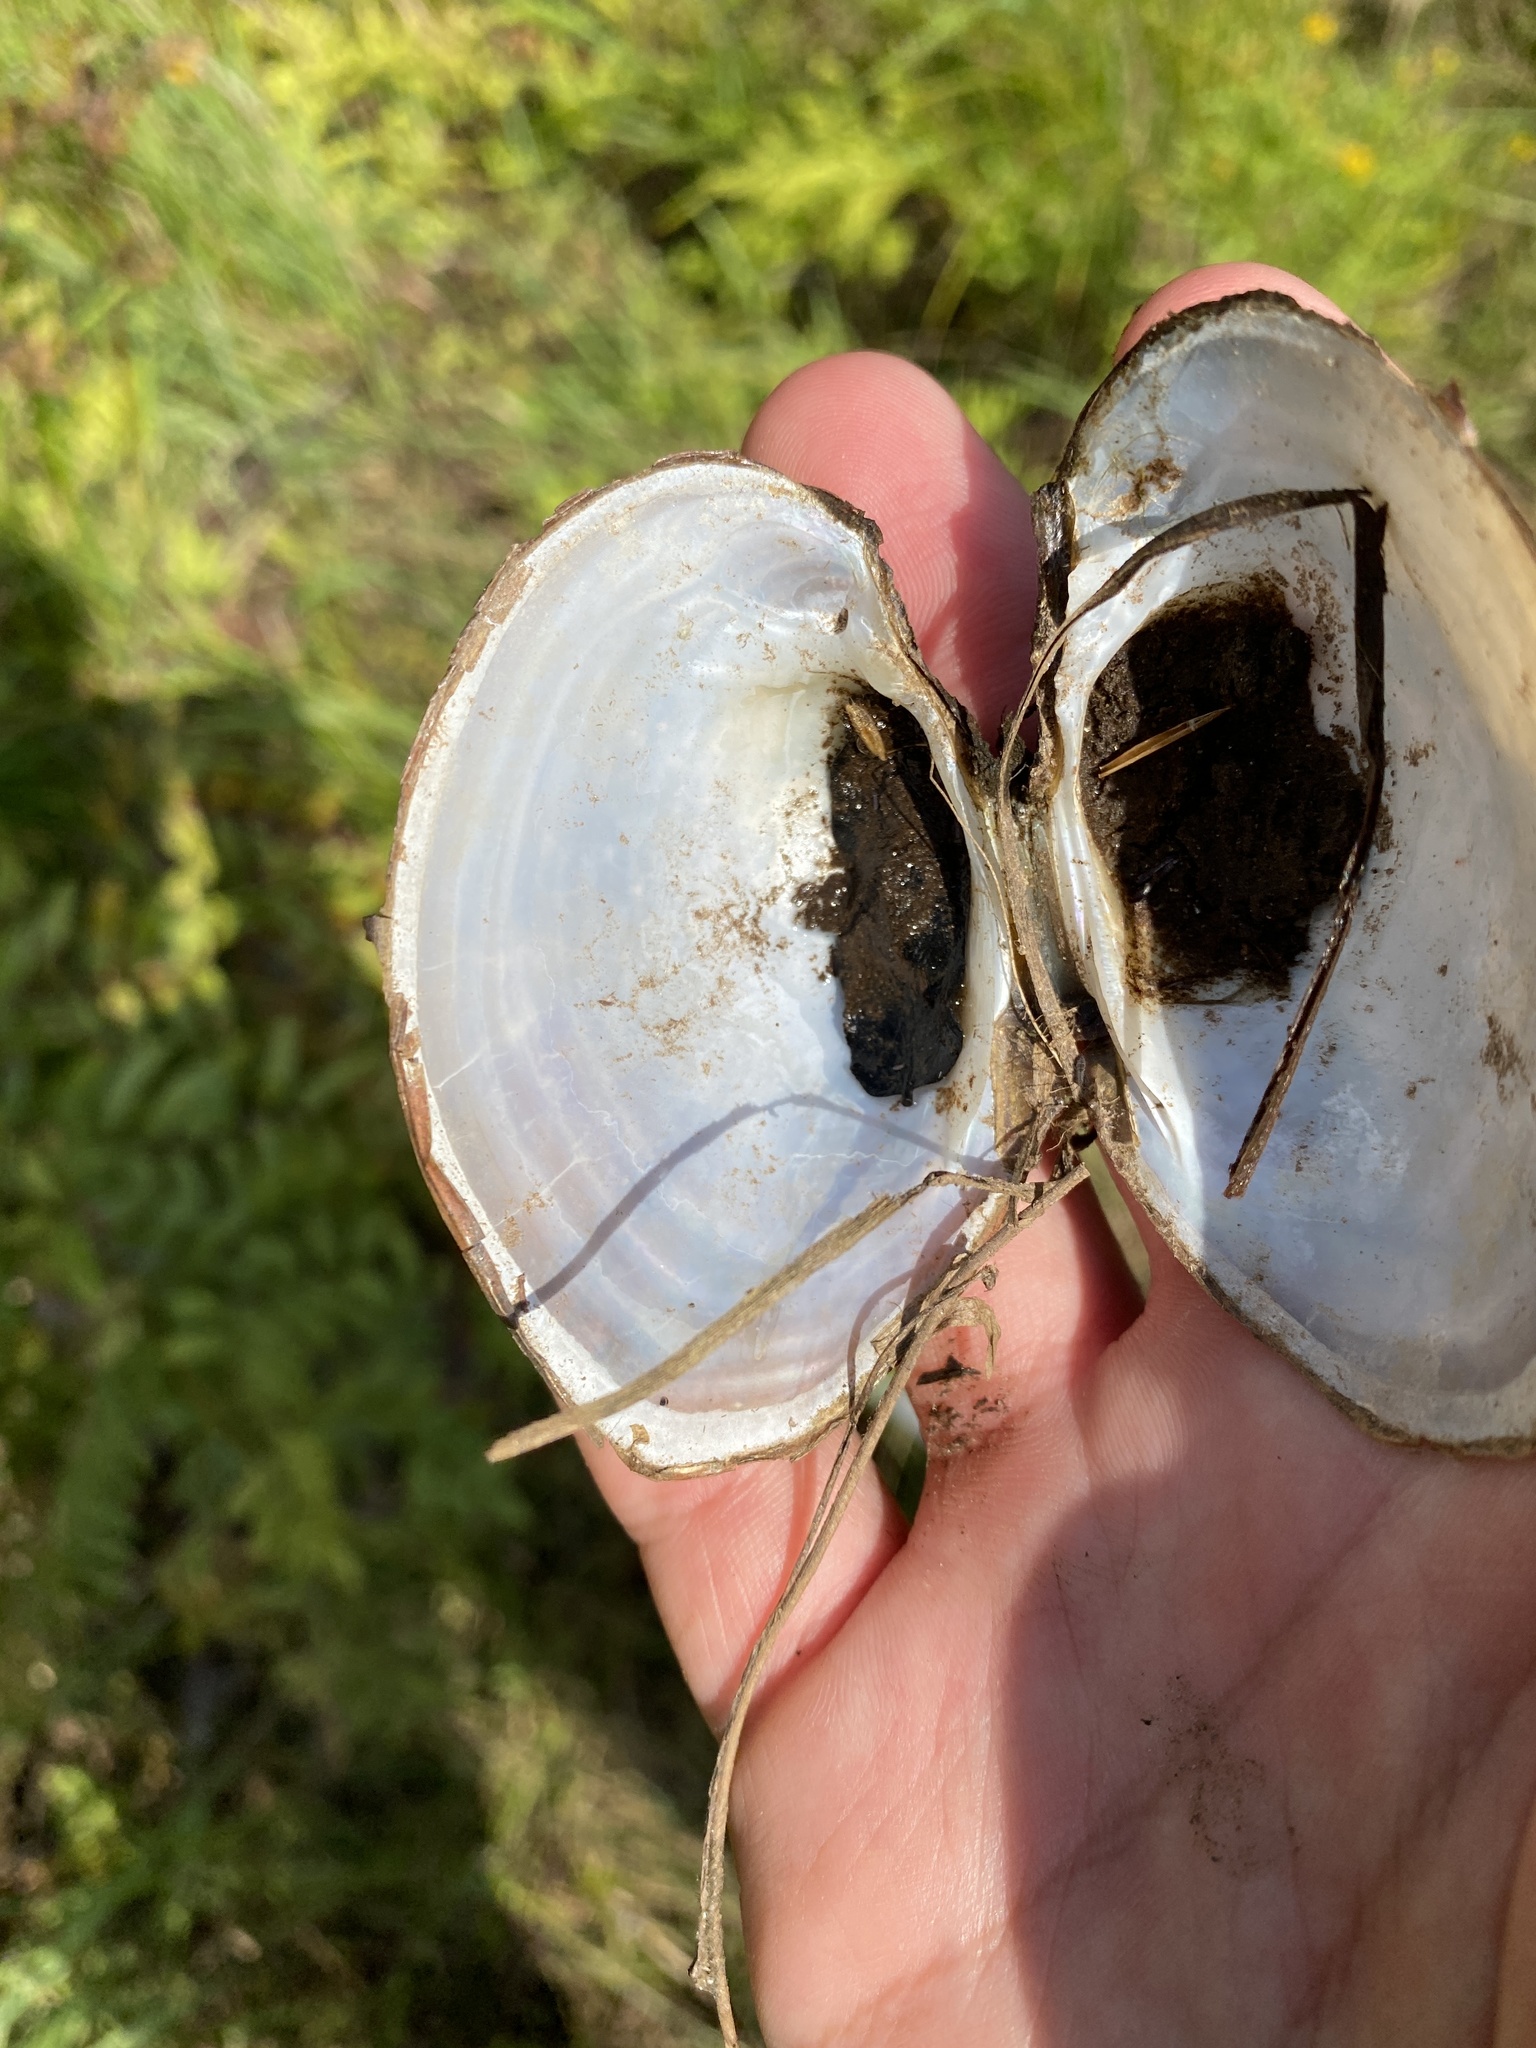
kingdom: Animalia
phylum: Mollusca
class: Bivalvia
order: Unionida
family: Unionidae
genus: Lampsilis
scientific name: Lampsilis cardium
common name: Plain pocketbook
